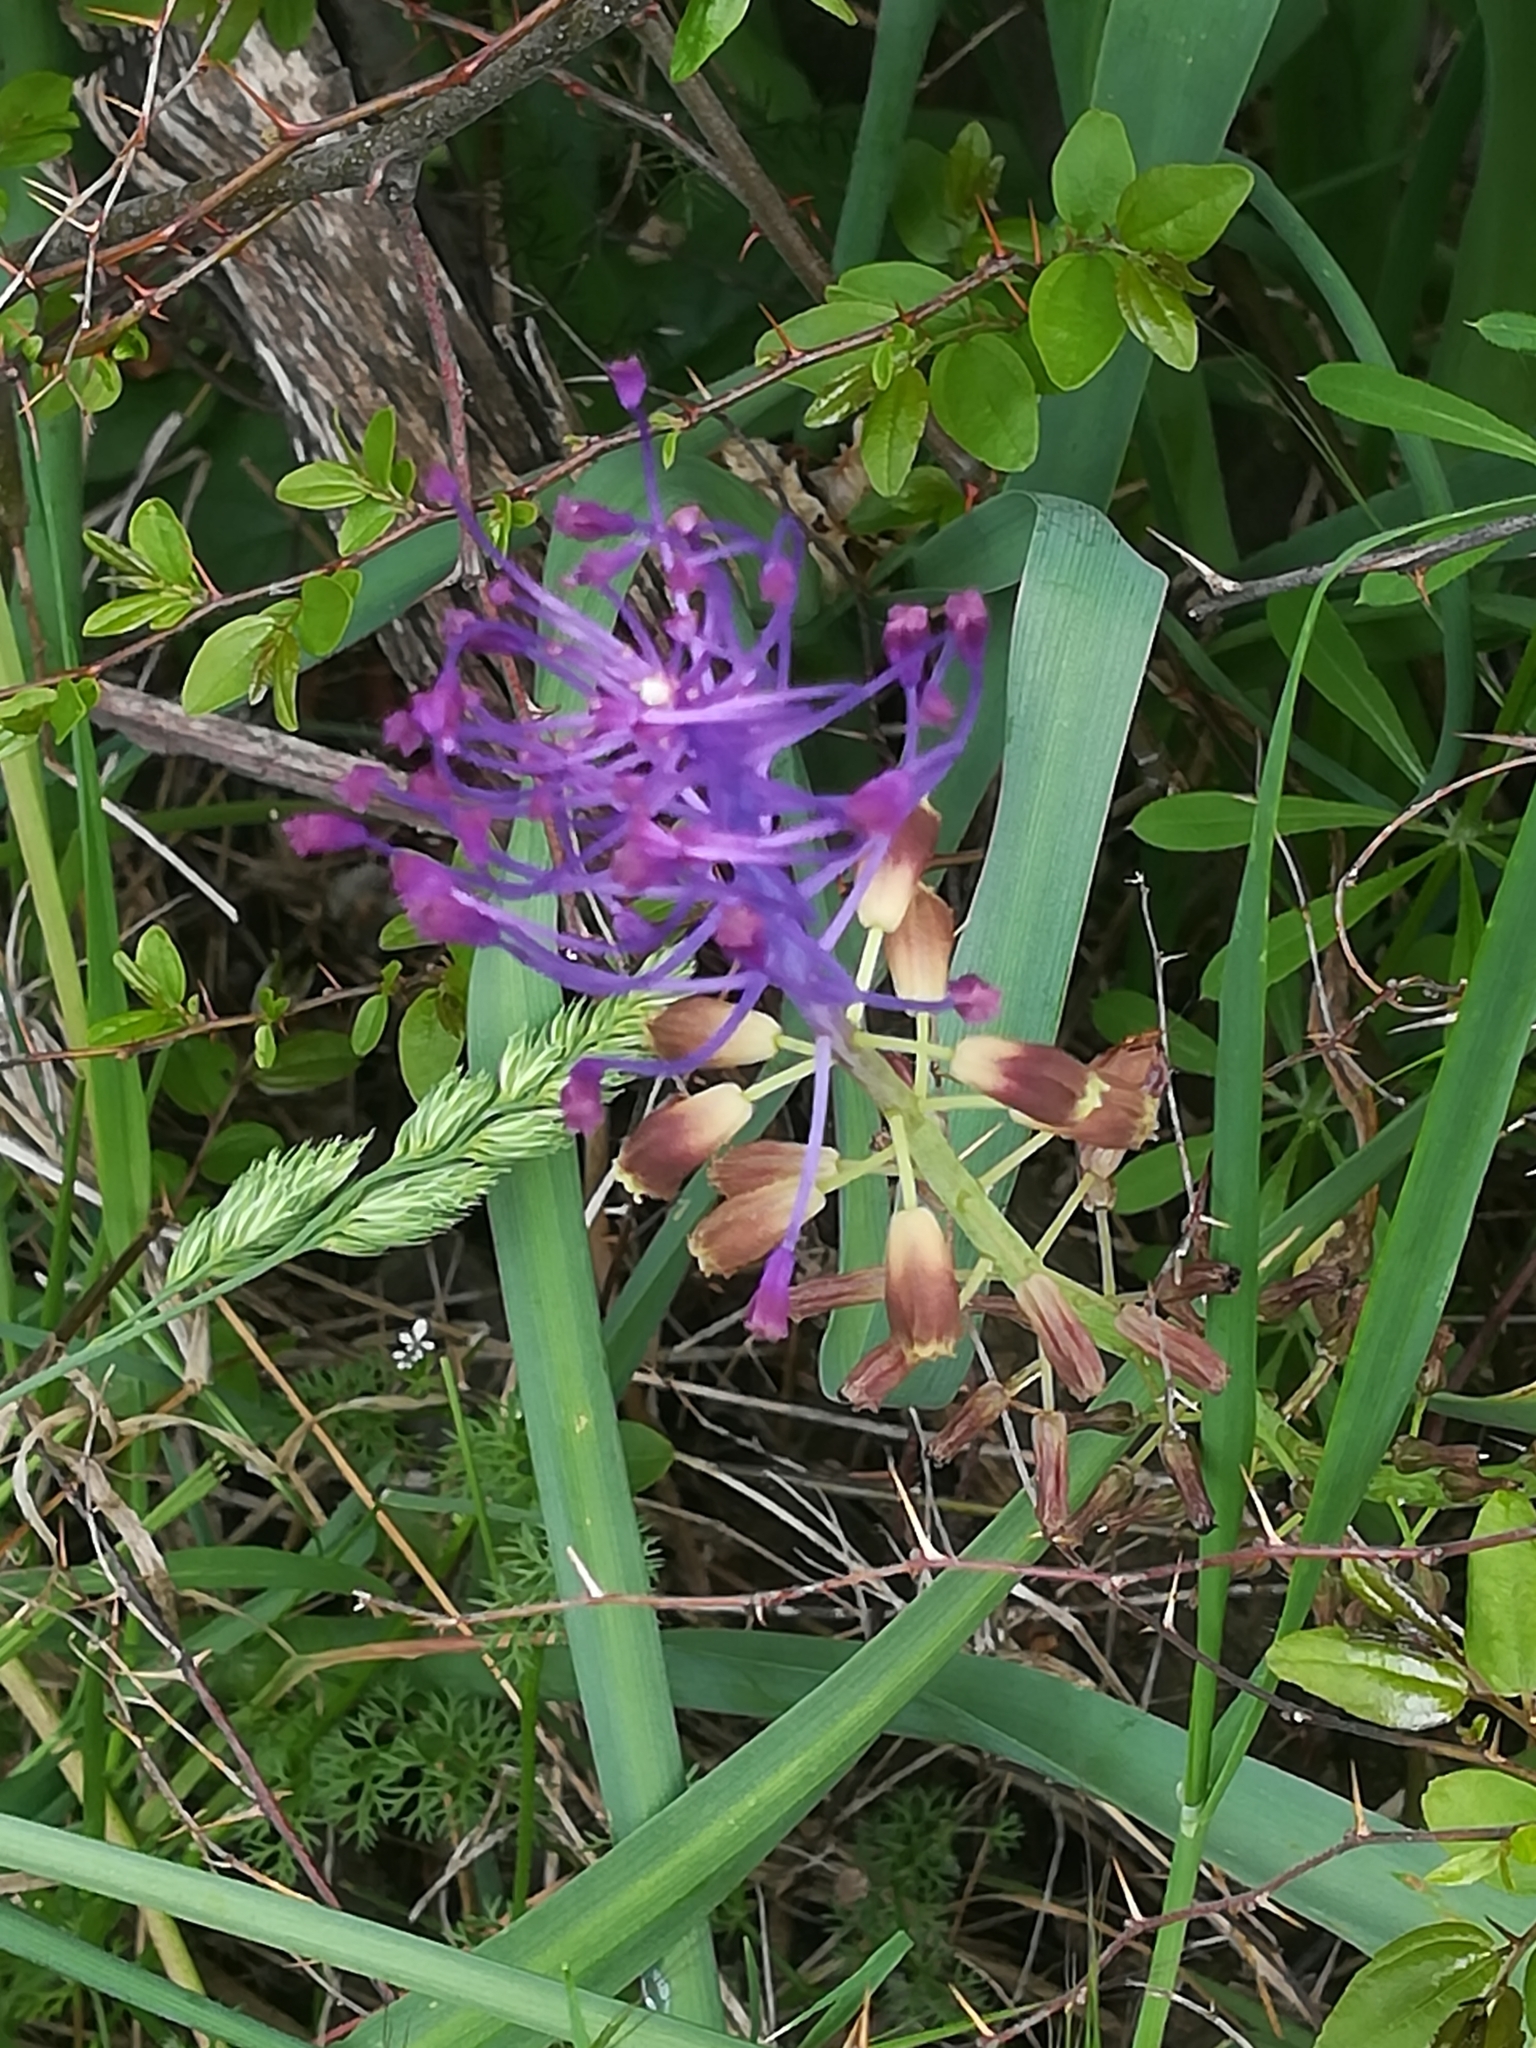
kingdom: Plantae
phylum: Tracheophyta
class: Liliopsida
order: Asparagales
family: Asparagaceae
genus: Muscari
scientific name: Muscari comosum
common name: Tassel hyacinth
